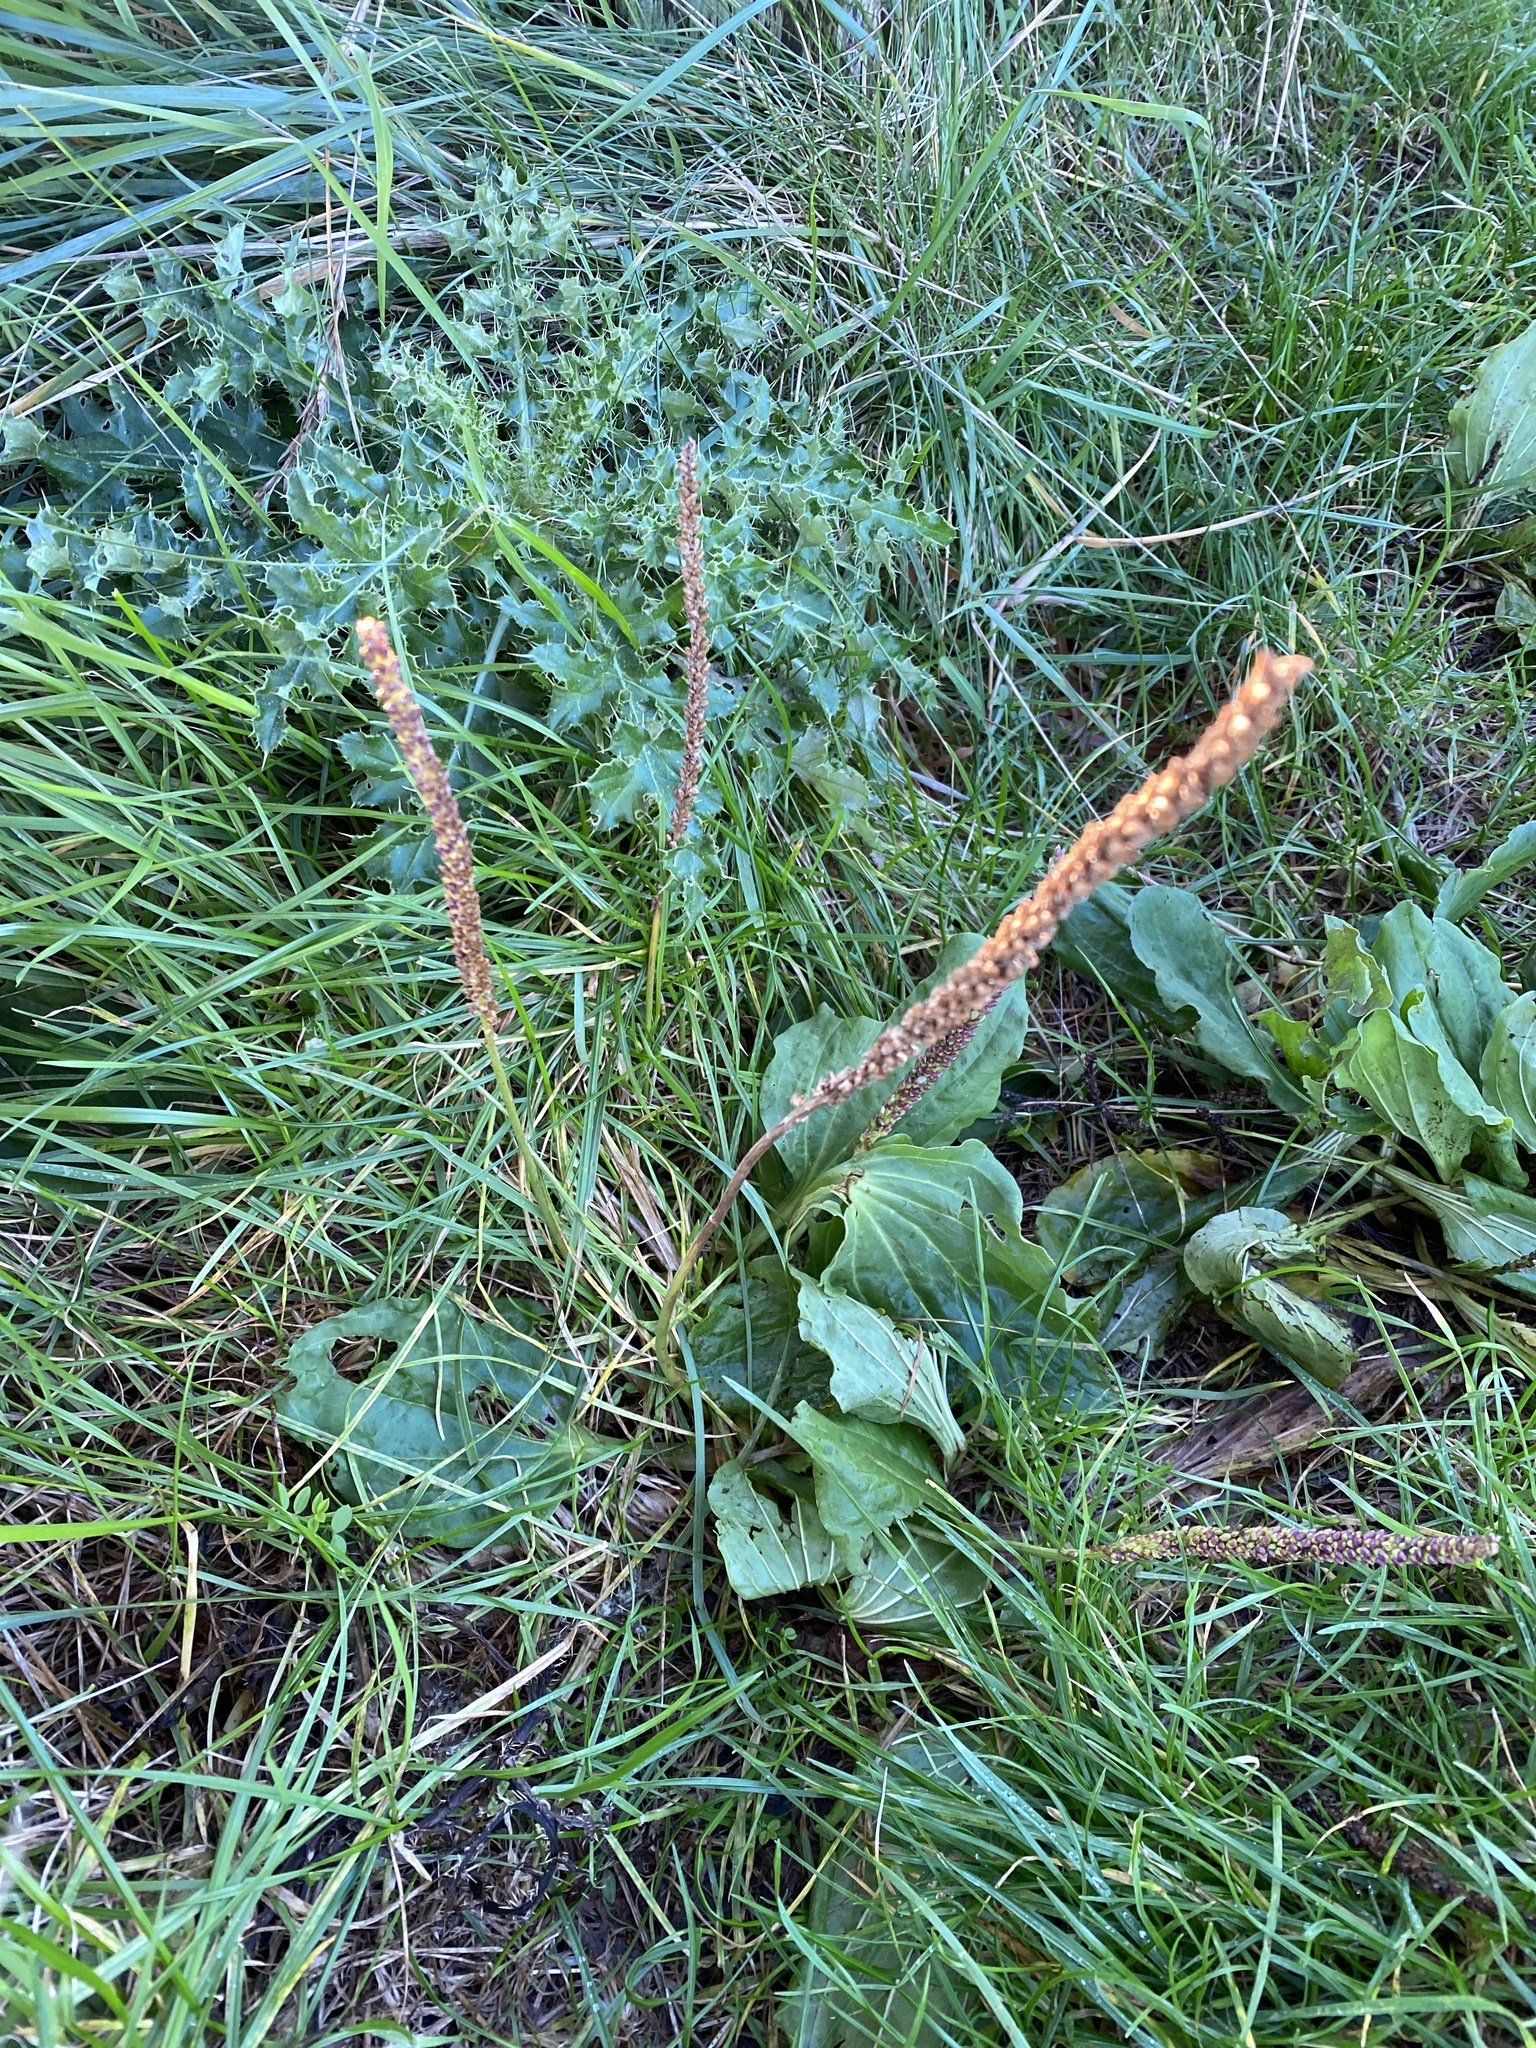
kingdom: Plantae
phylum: Tracheophyta
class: Magnoliopsida
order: Lamiales
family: Plantaginaceae
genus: Plantago
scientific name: Plantago major
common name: Common plantain
